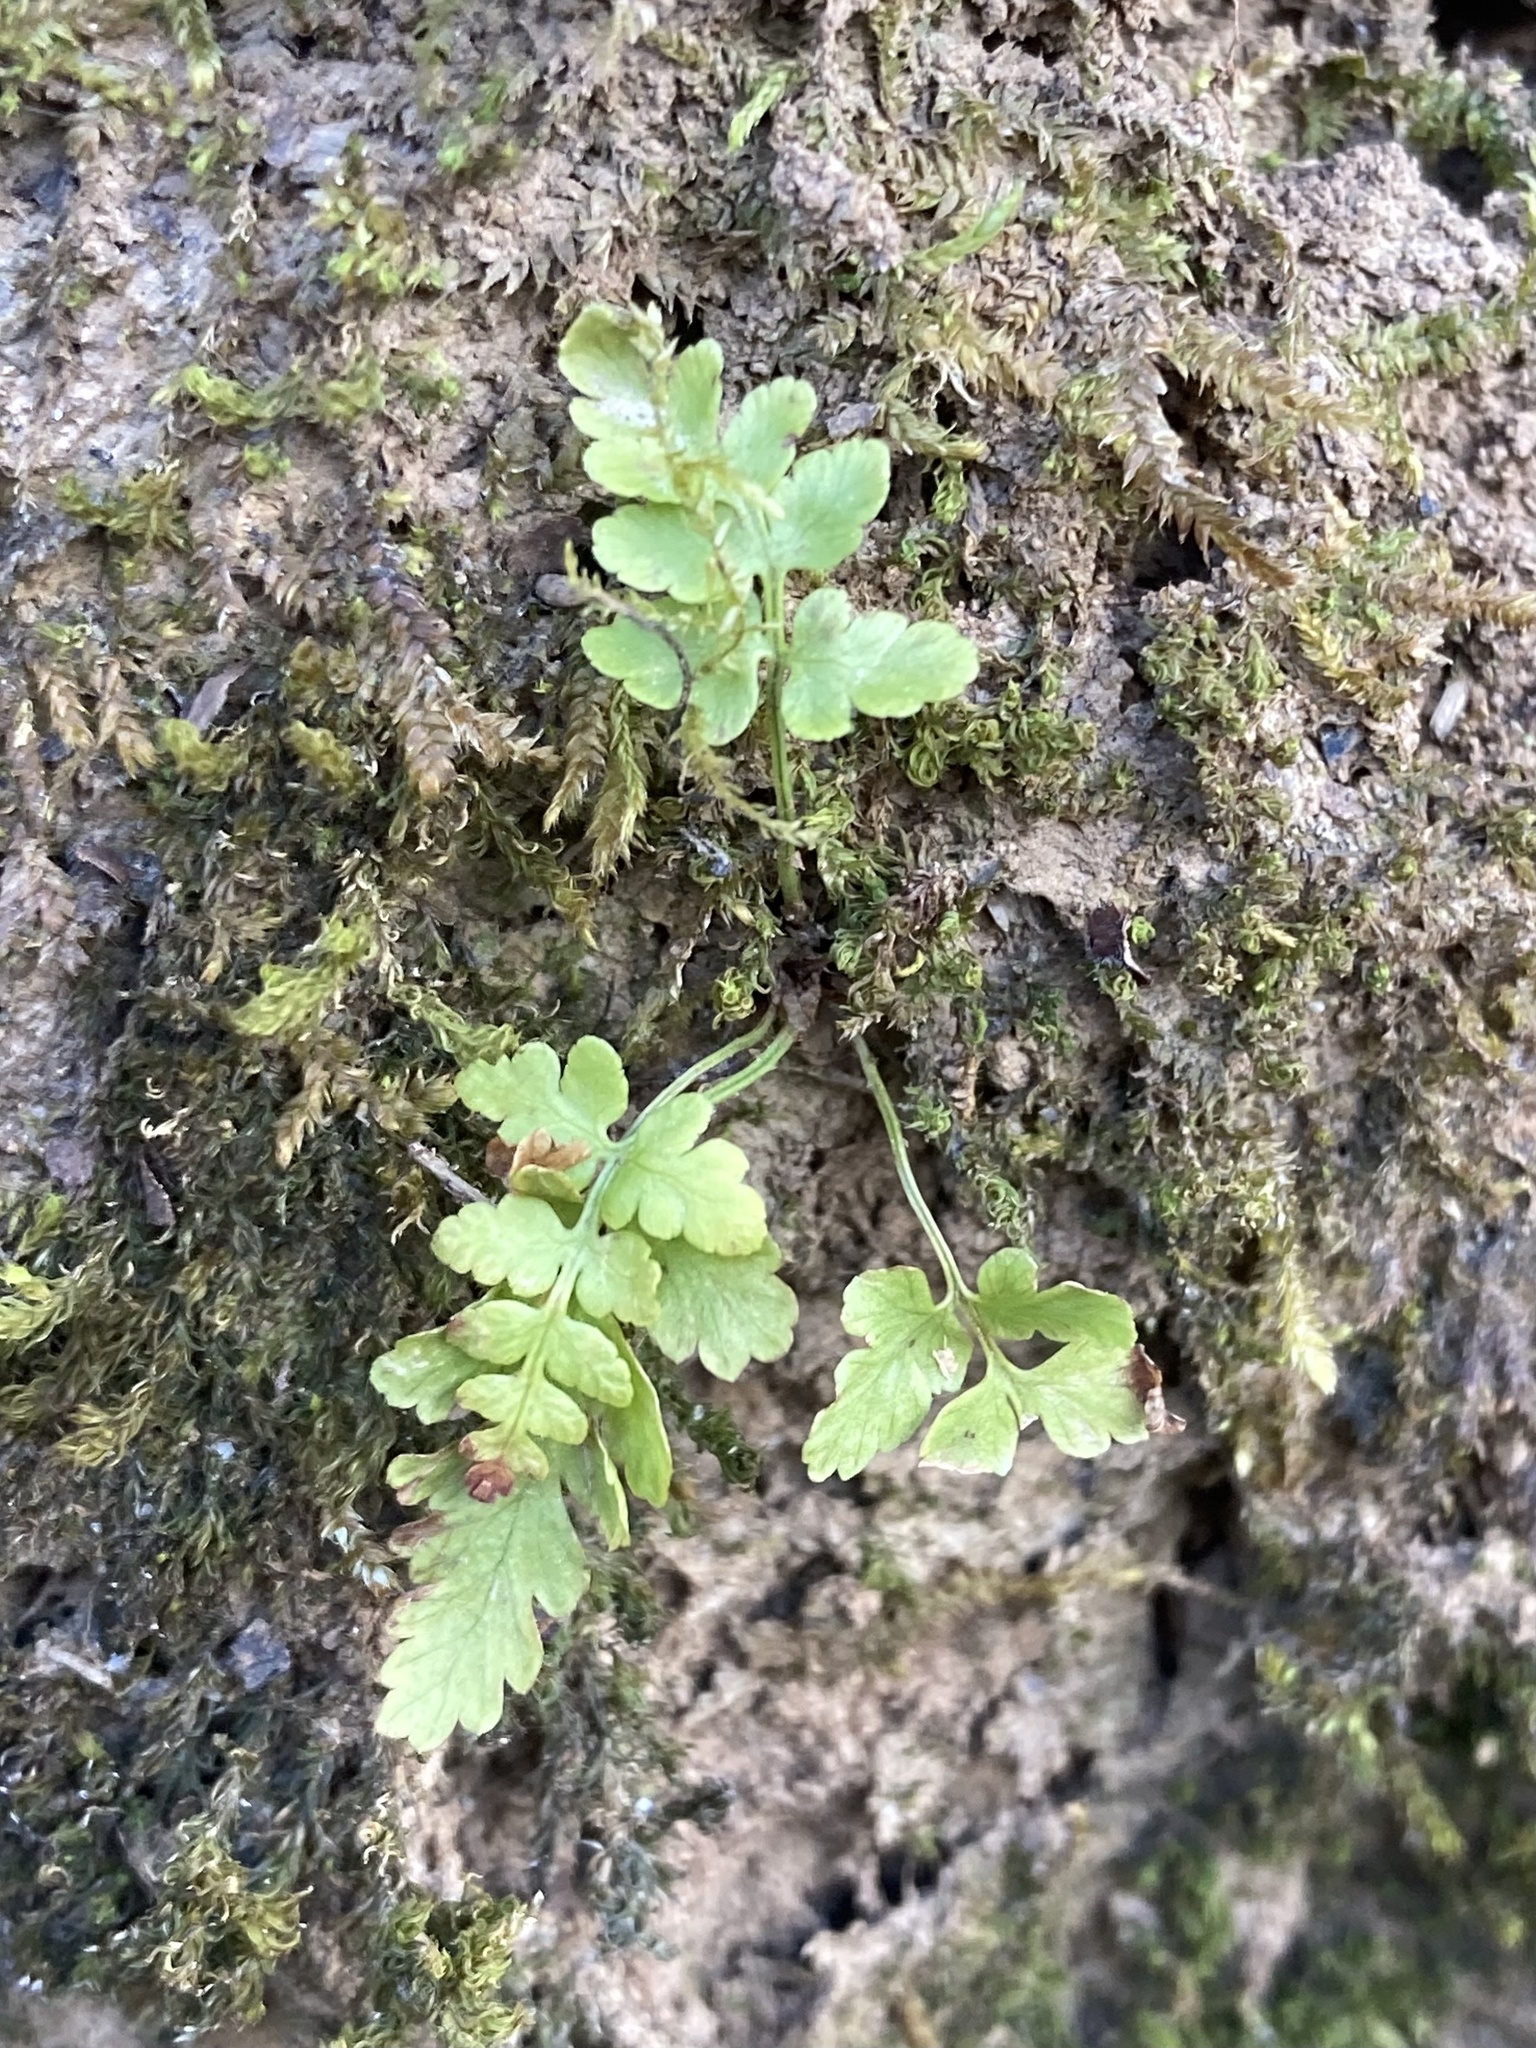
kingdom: Plantae
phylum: Tracheophyta
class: Polypodiopsida
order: Polypodiales
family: Woodsiaceae
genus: Physematium
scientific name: Physematium obtusum
